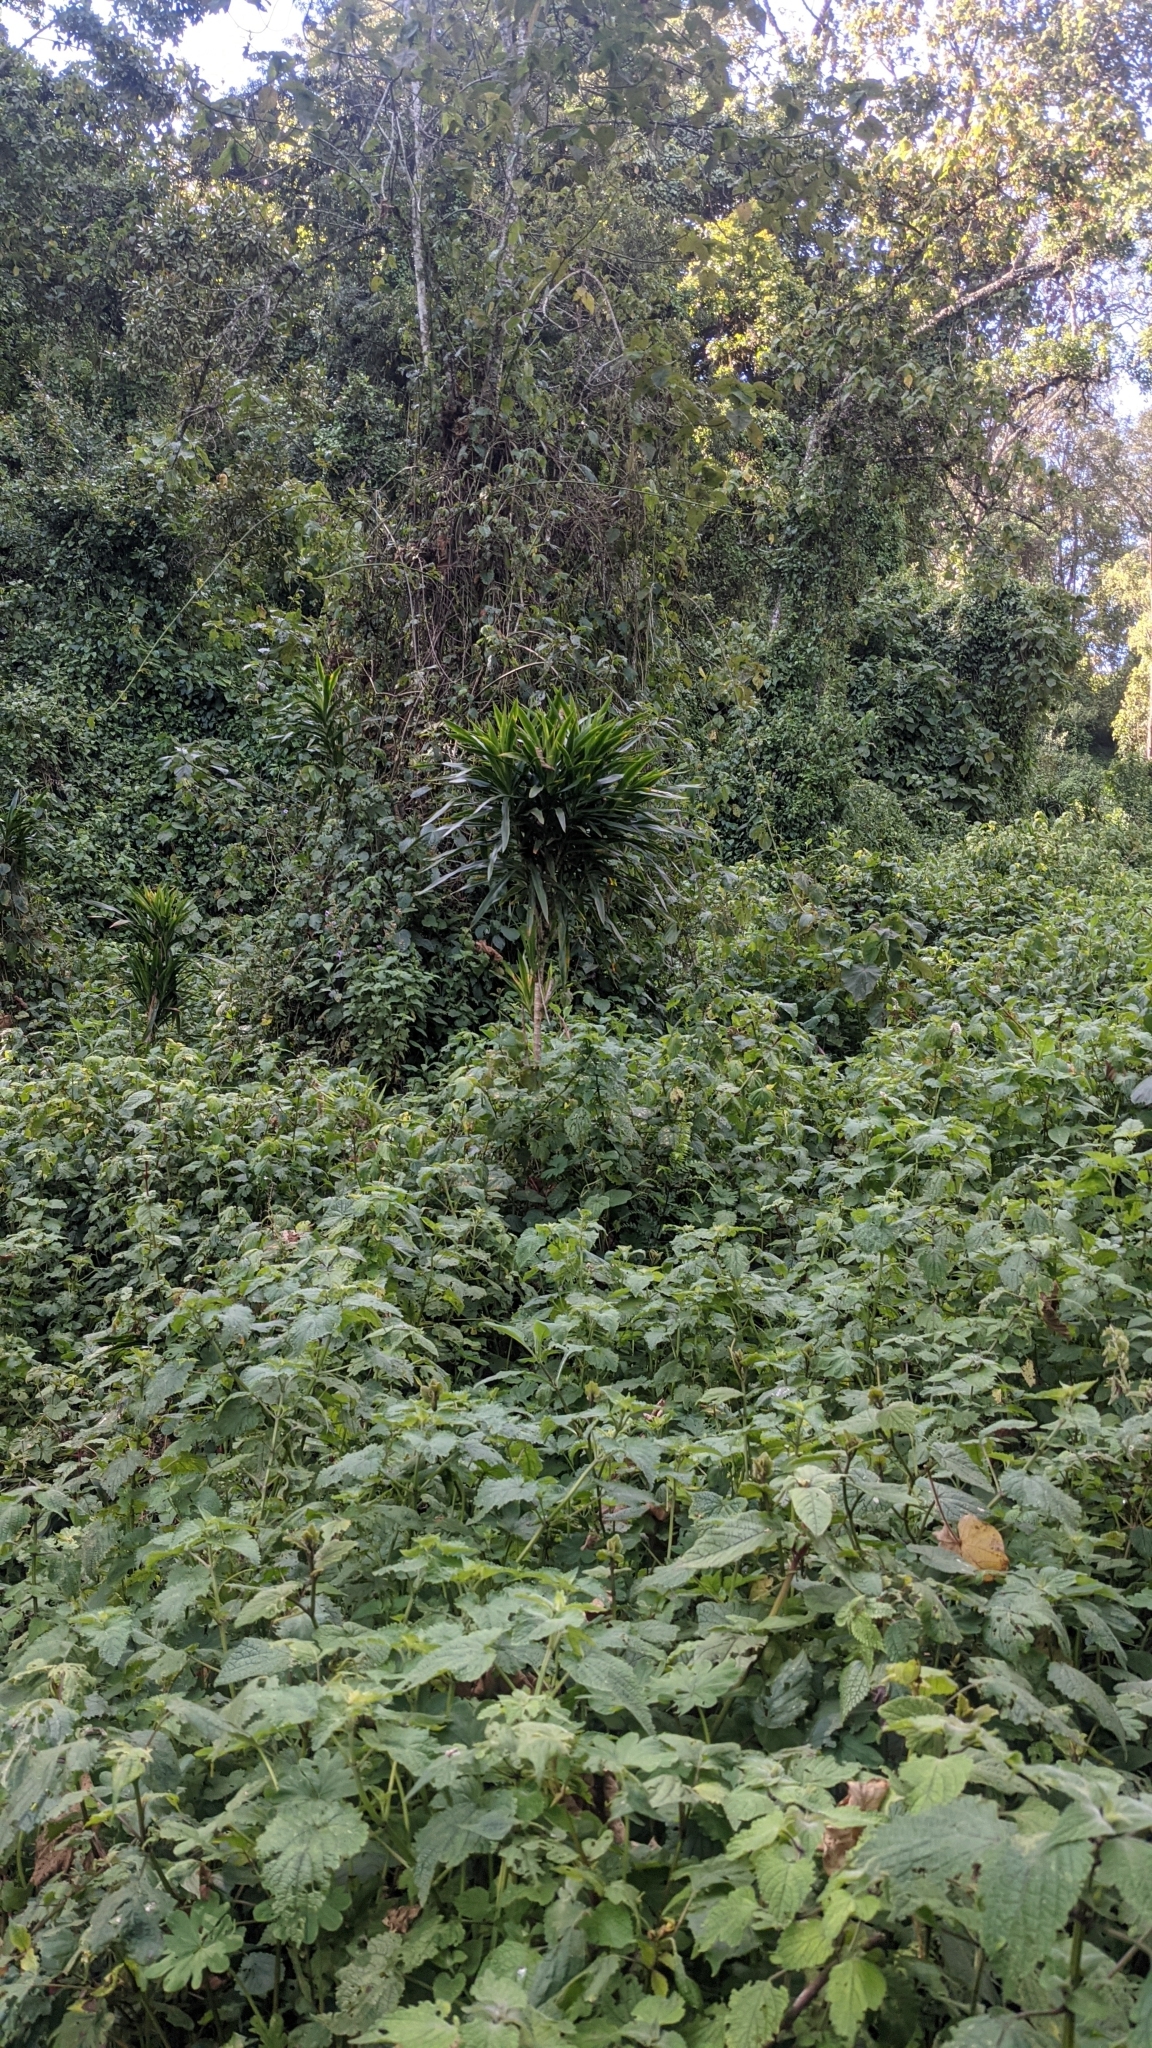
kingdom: Plantae
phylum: Tracheophyta
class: Liliopsida
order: Asparagales
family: Asparagaceae
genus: Dracaena
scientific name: Dracaena afromontana
